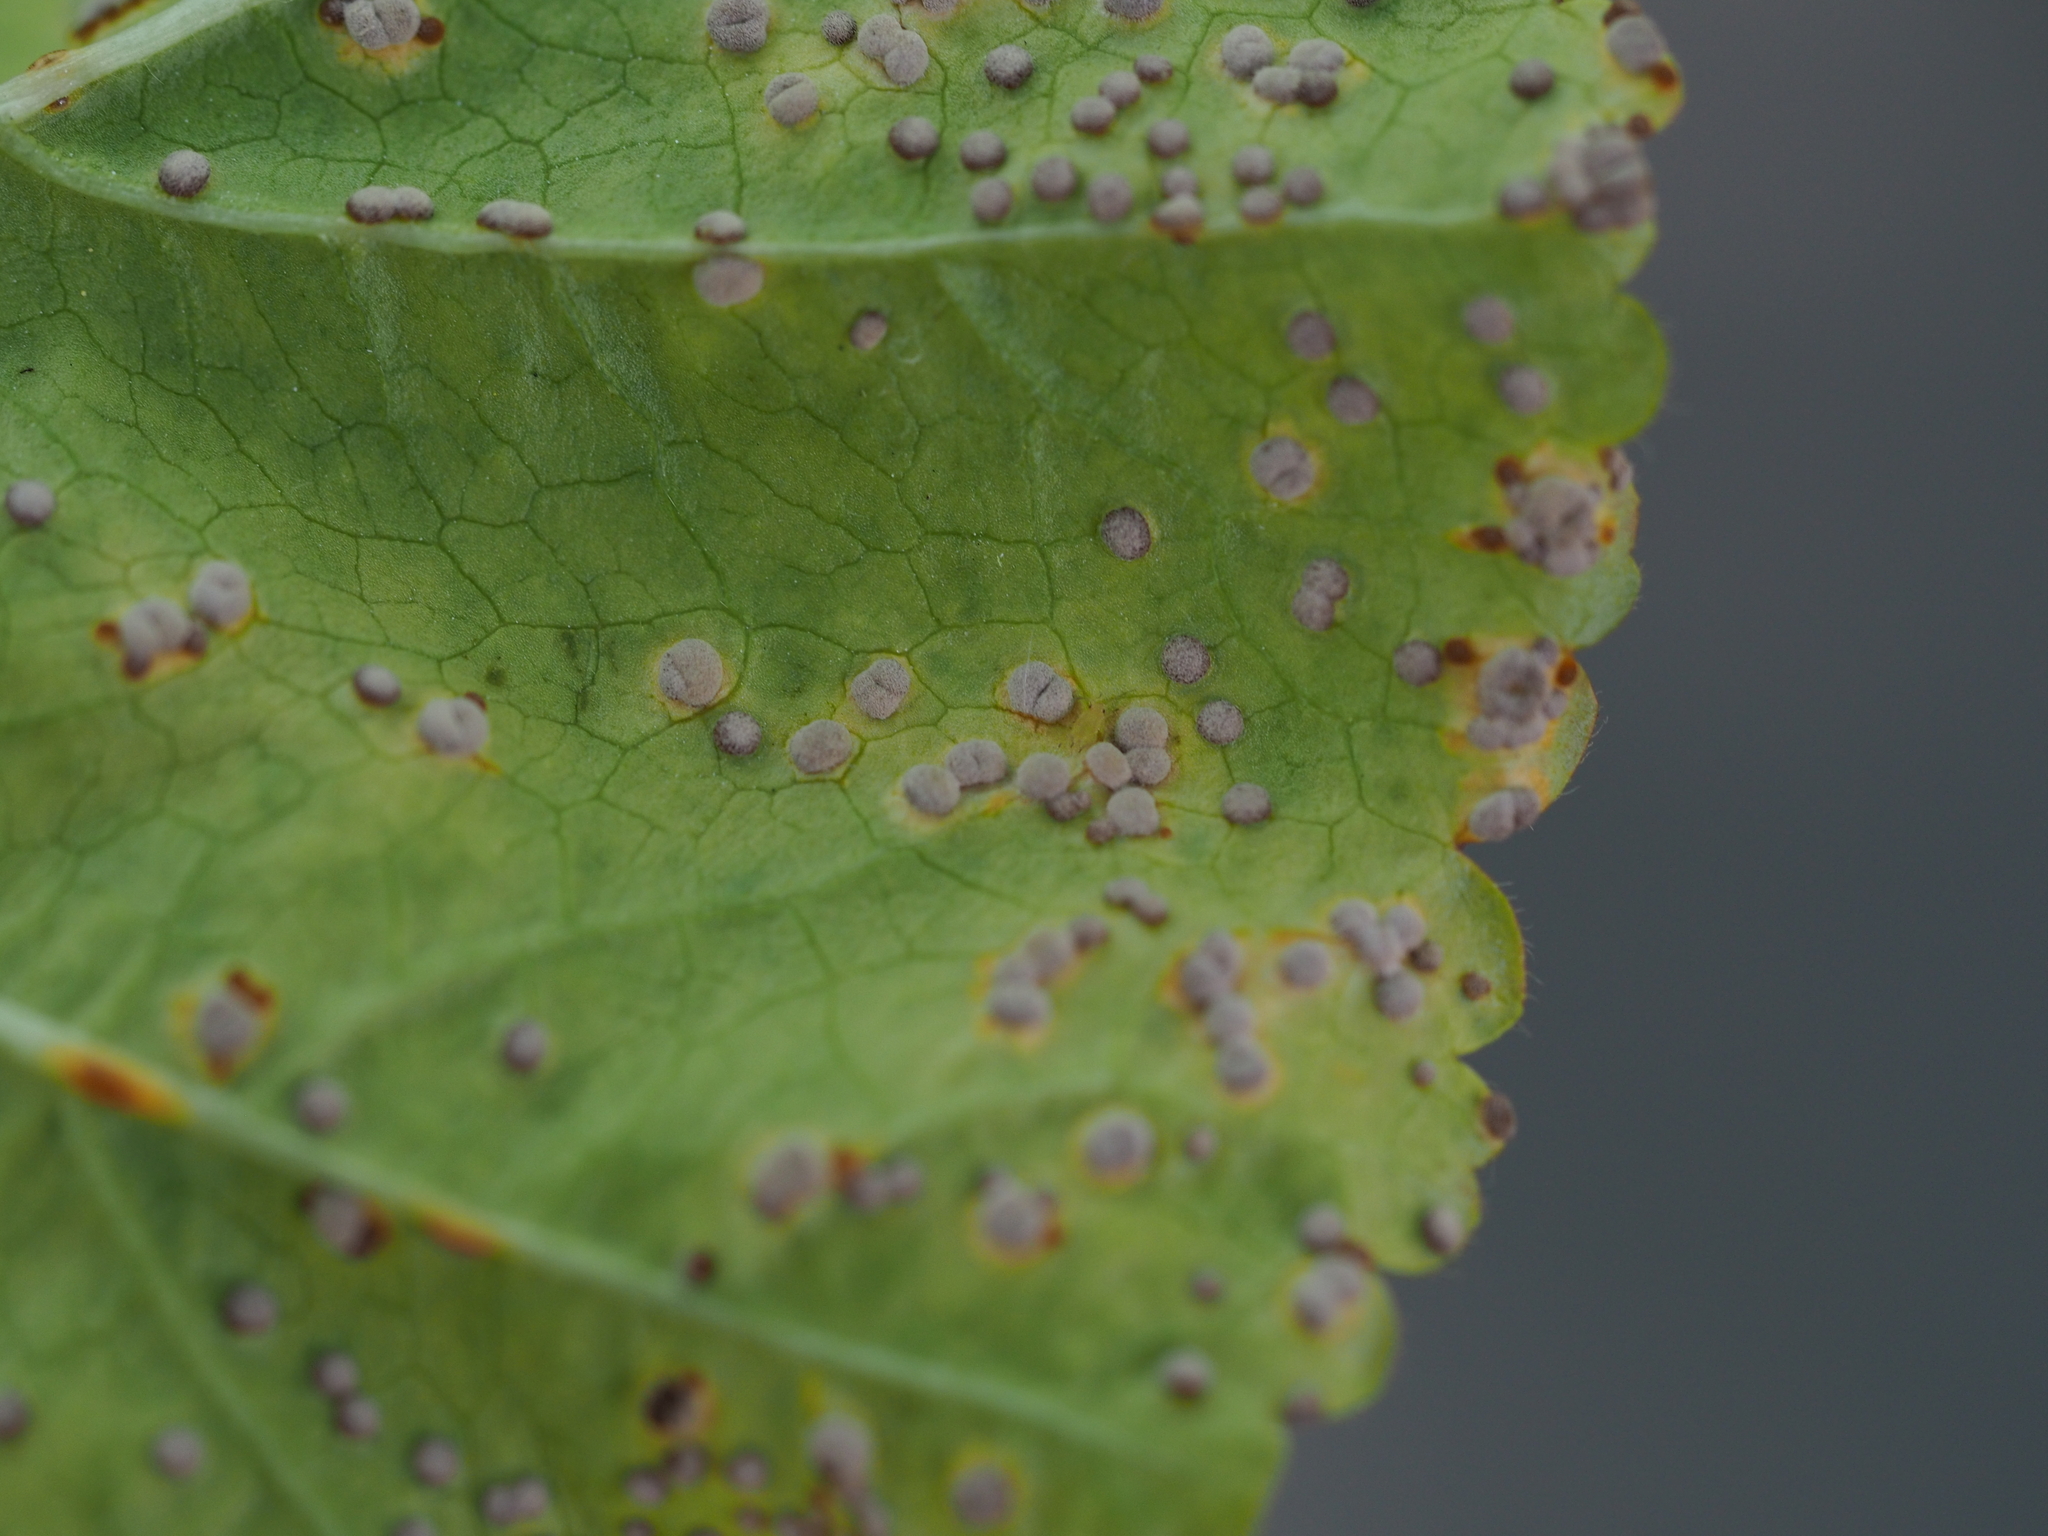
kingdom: Fungi
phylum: Basidiomycota
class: Pucciniomycetes
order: Pucciniales
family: Pucciniaceae
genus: Puccinia
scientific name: Puccinia malvacearum
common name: Hollyhock rust
